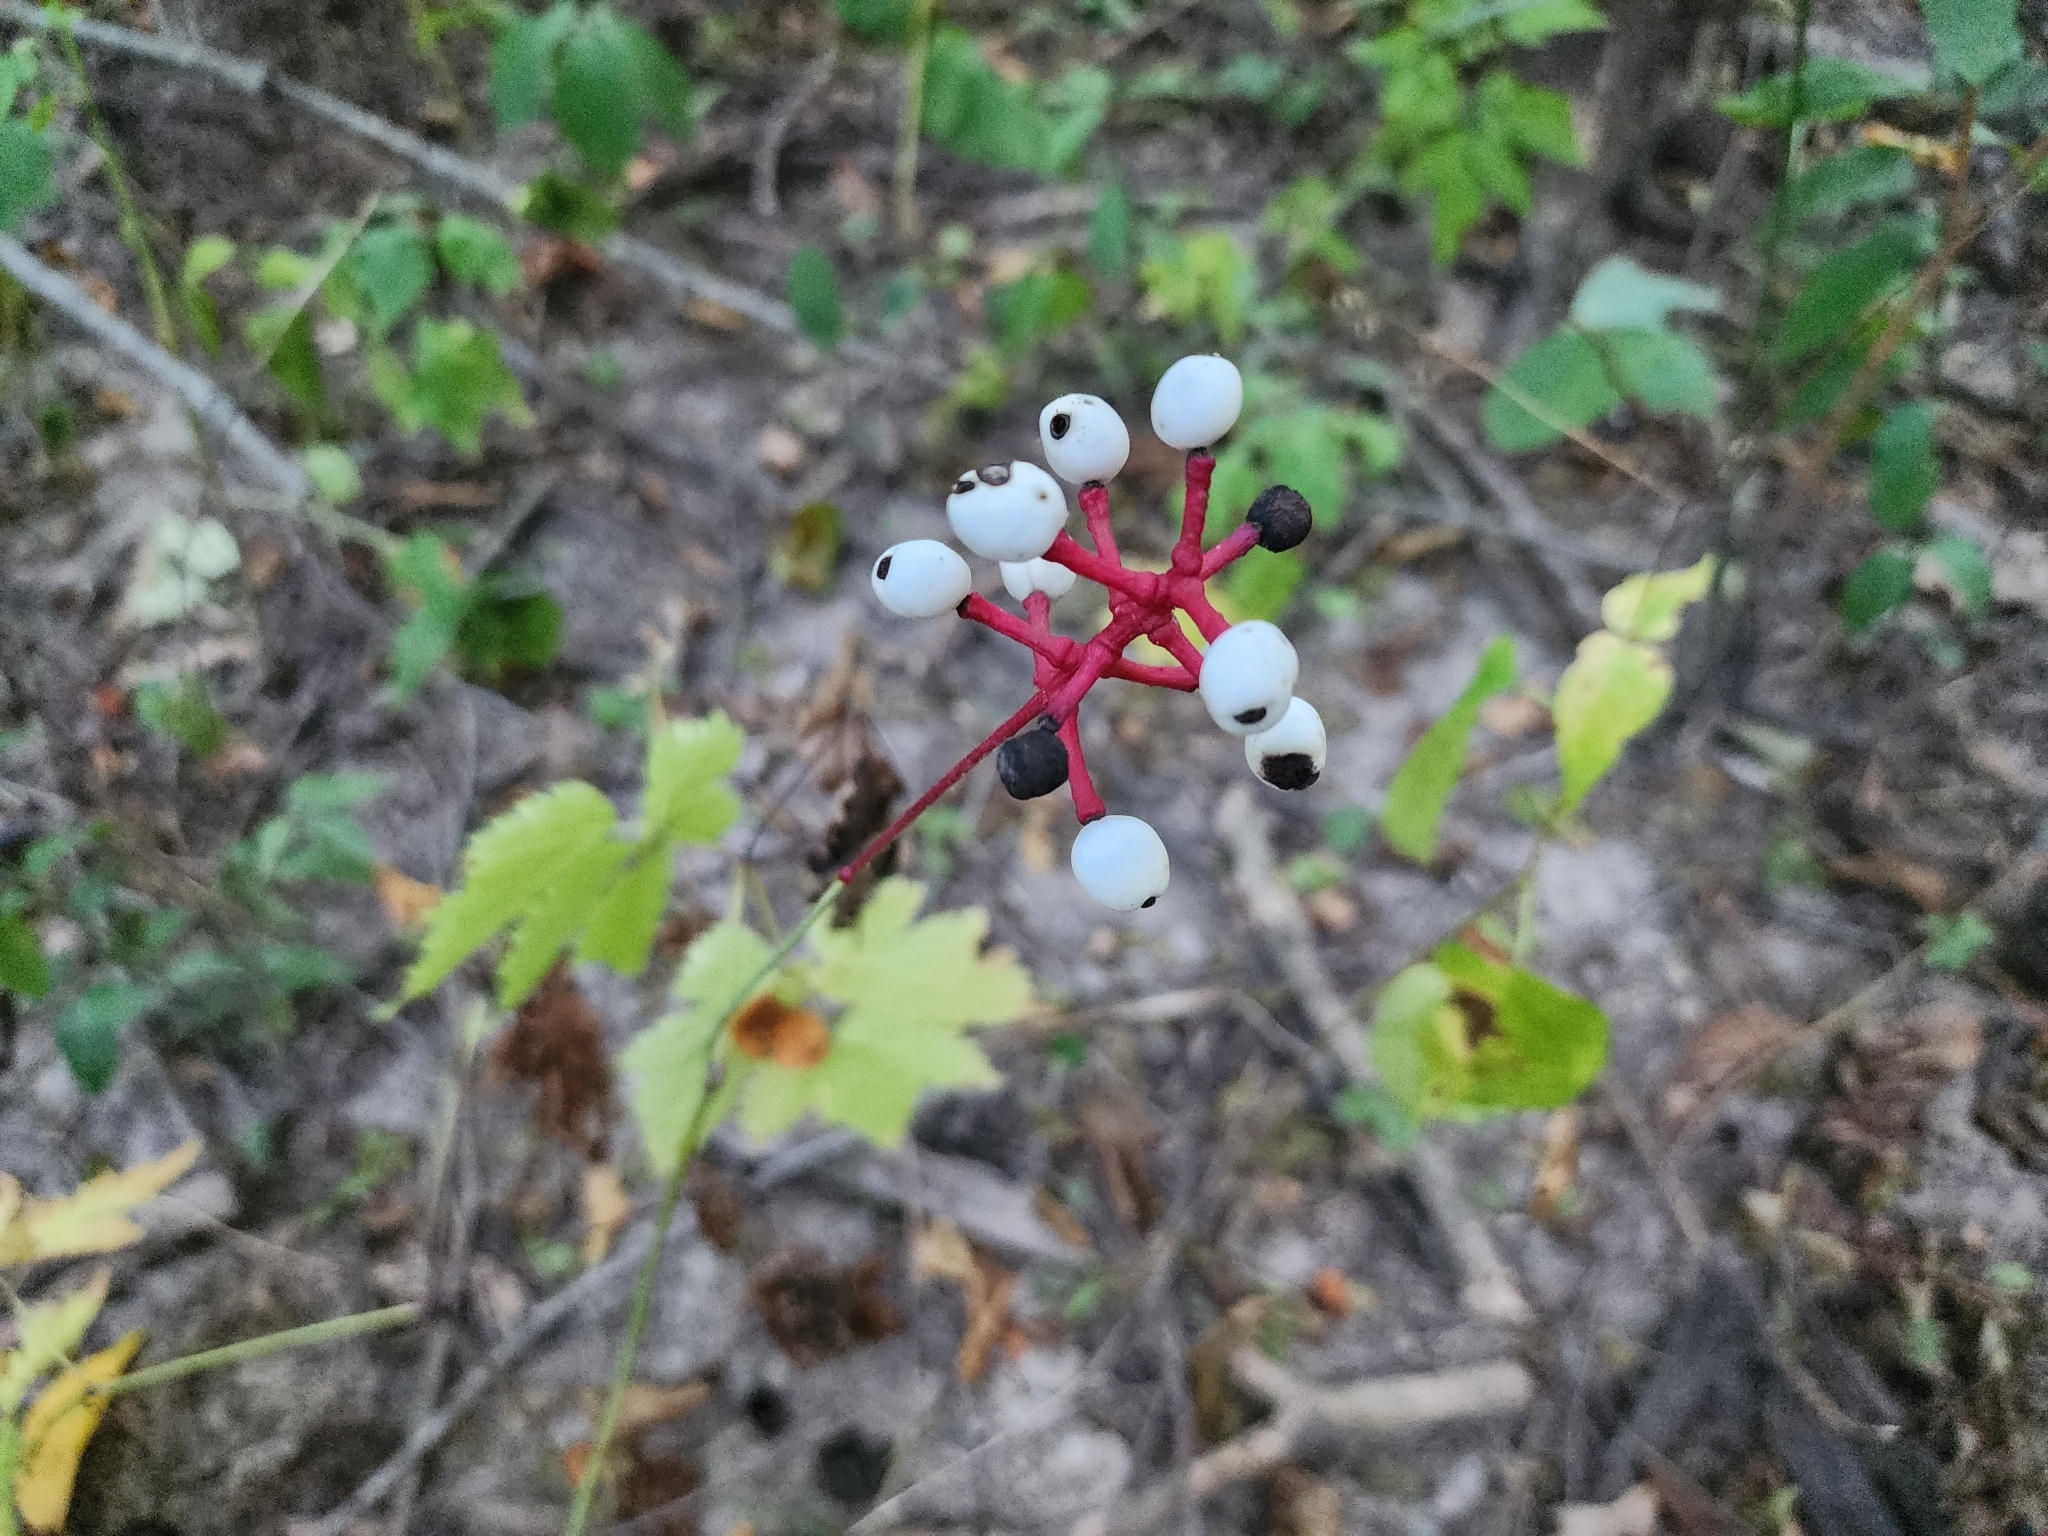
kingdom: Plantae
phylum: Tracheophyta
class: Magnoliopsida
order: Ranunculales
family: Ranunculaceae
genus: Actaea
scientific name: Actaea pachypoda
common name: Doll's-eyes
